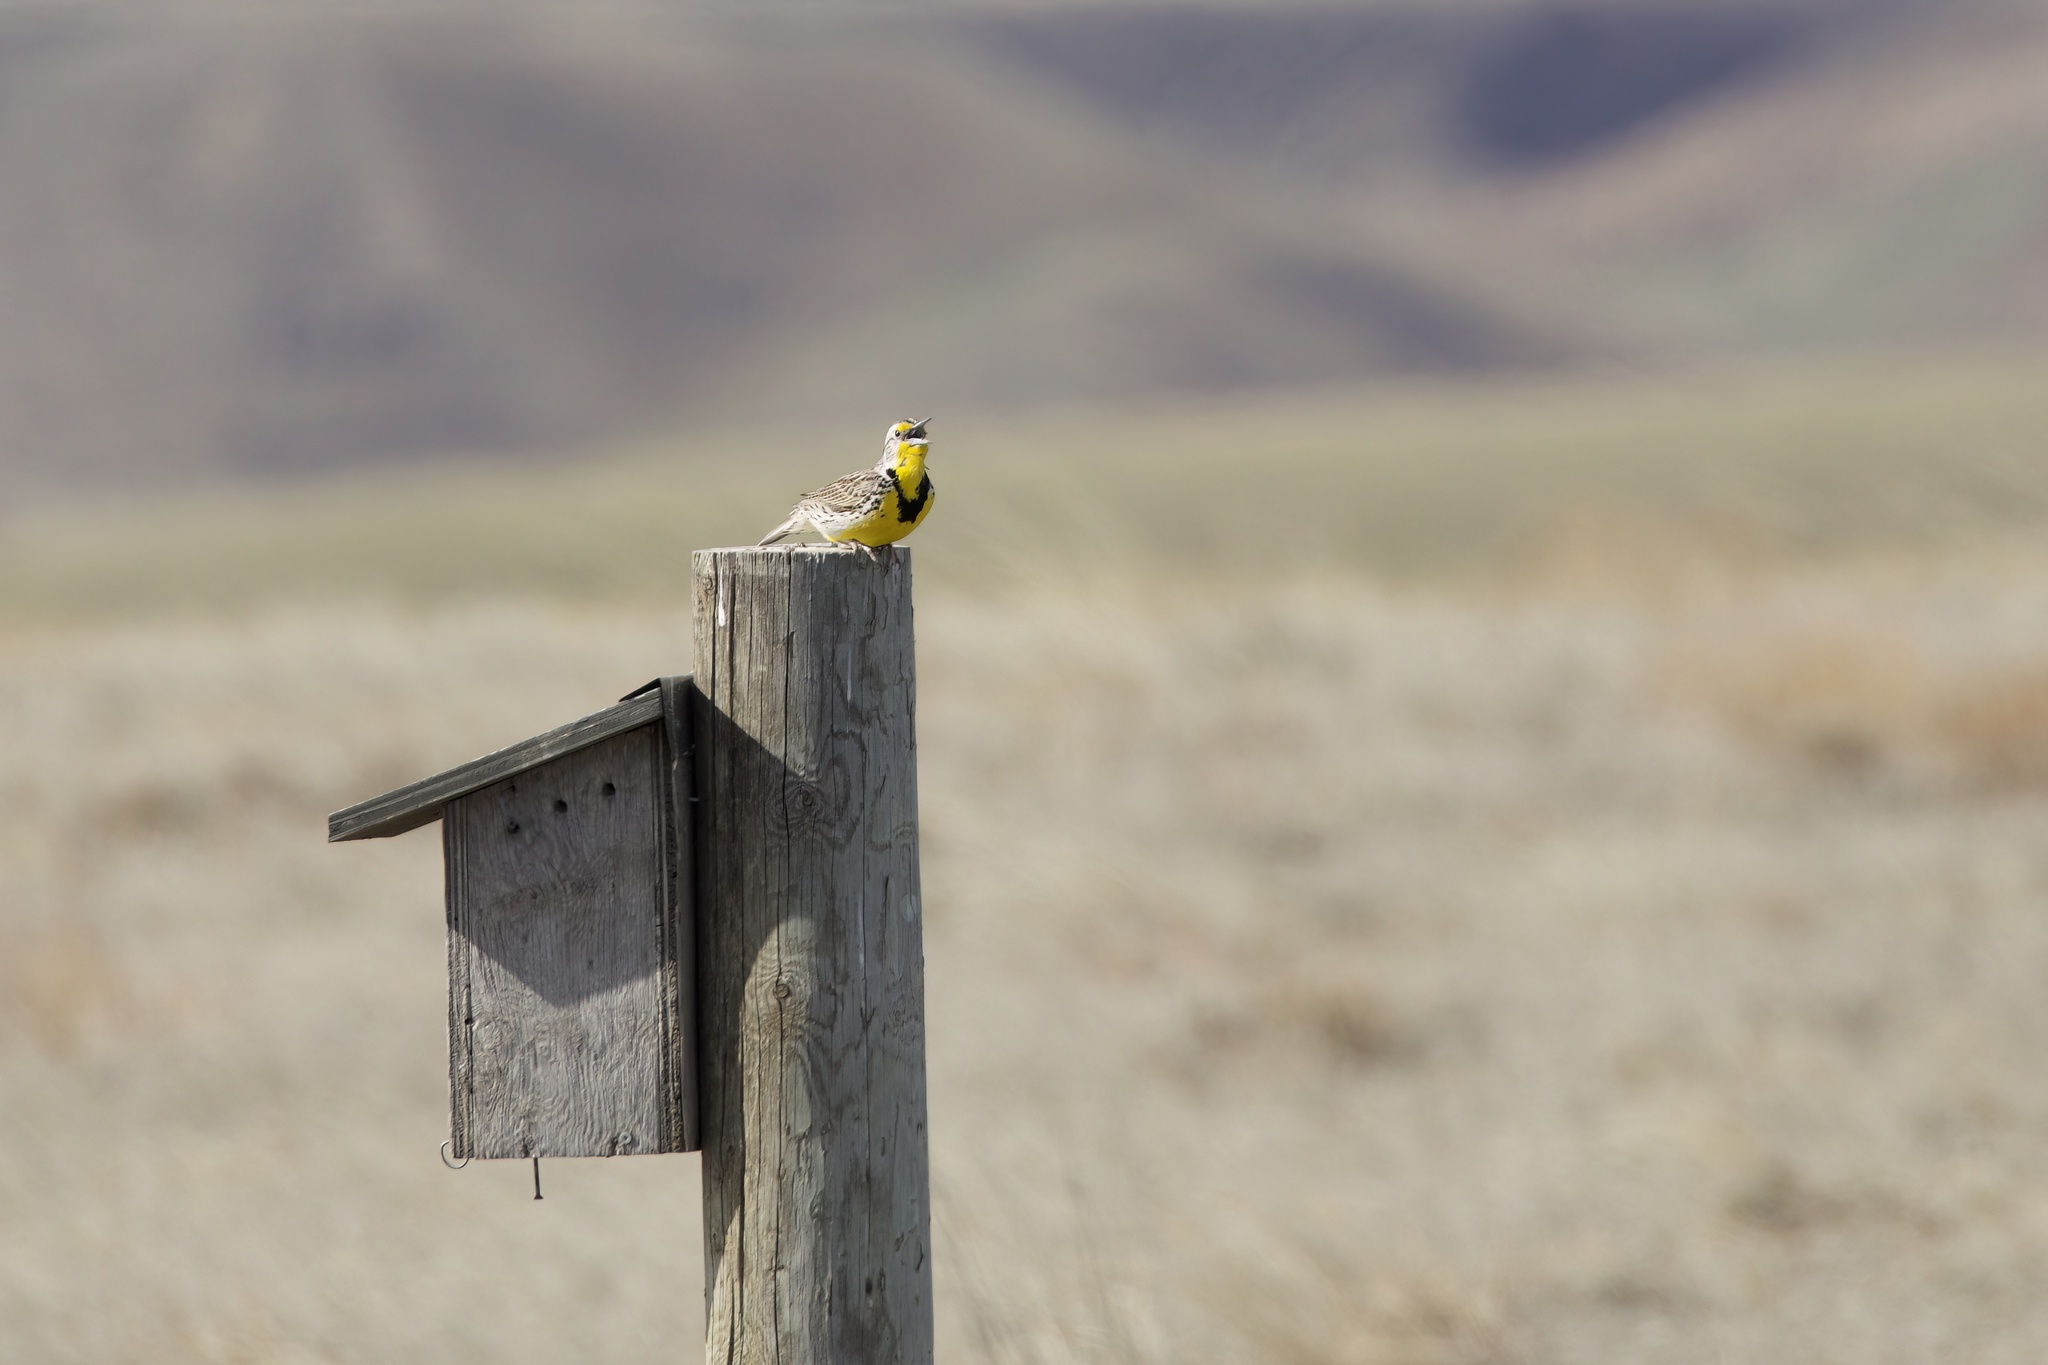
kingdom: Animalia
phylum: Chordata
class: Aves
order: Passeriformes
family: Icteridae
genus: Sturnella
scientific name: Sturnella neglecta
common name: Western meadowlark
